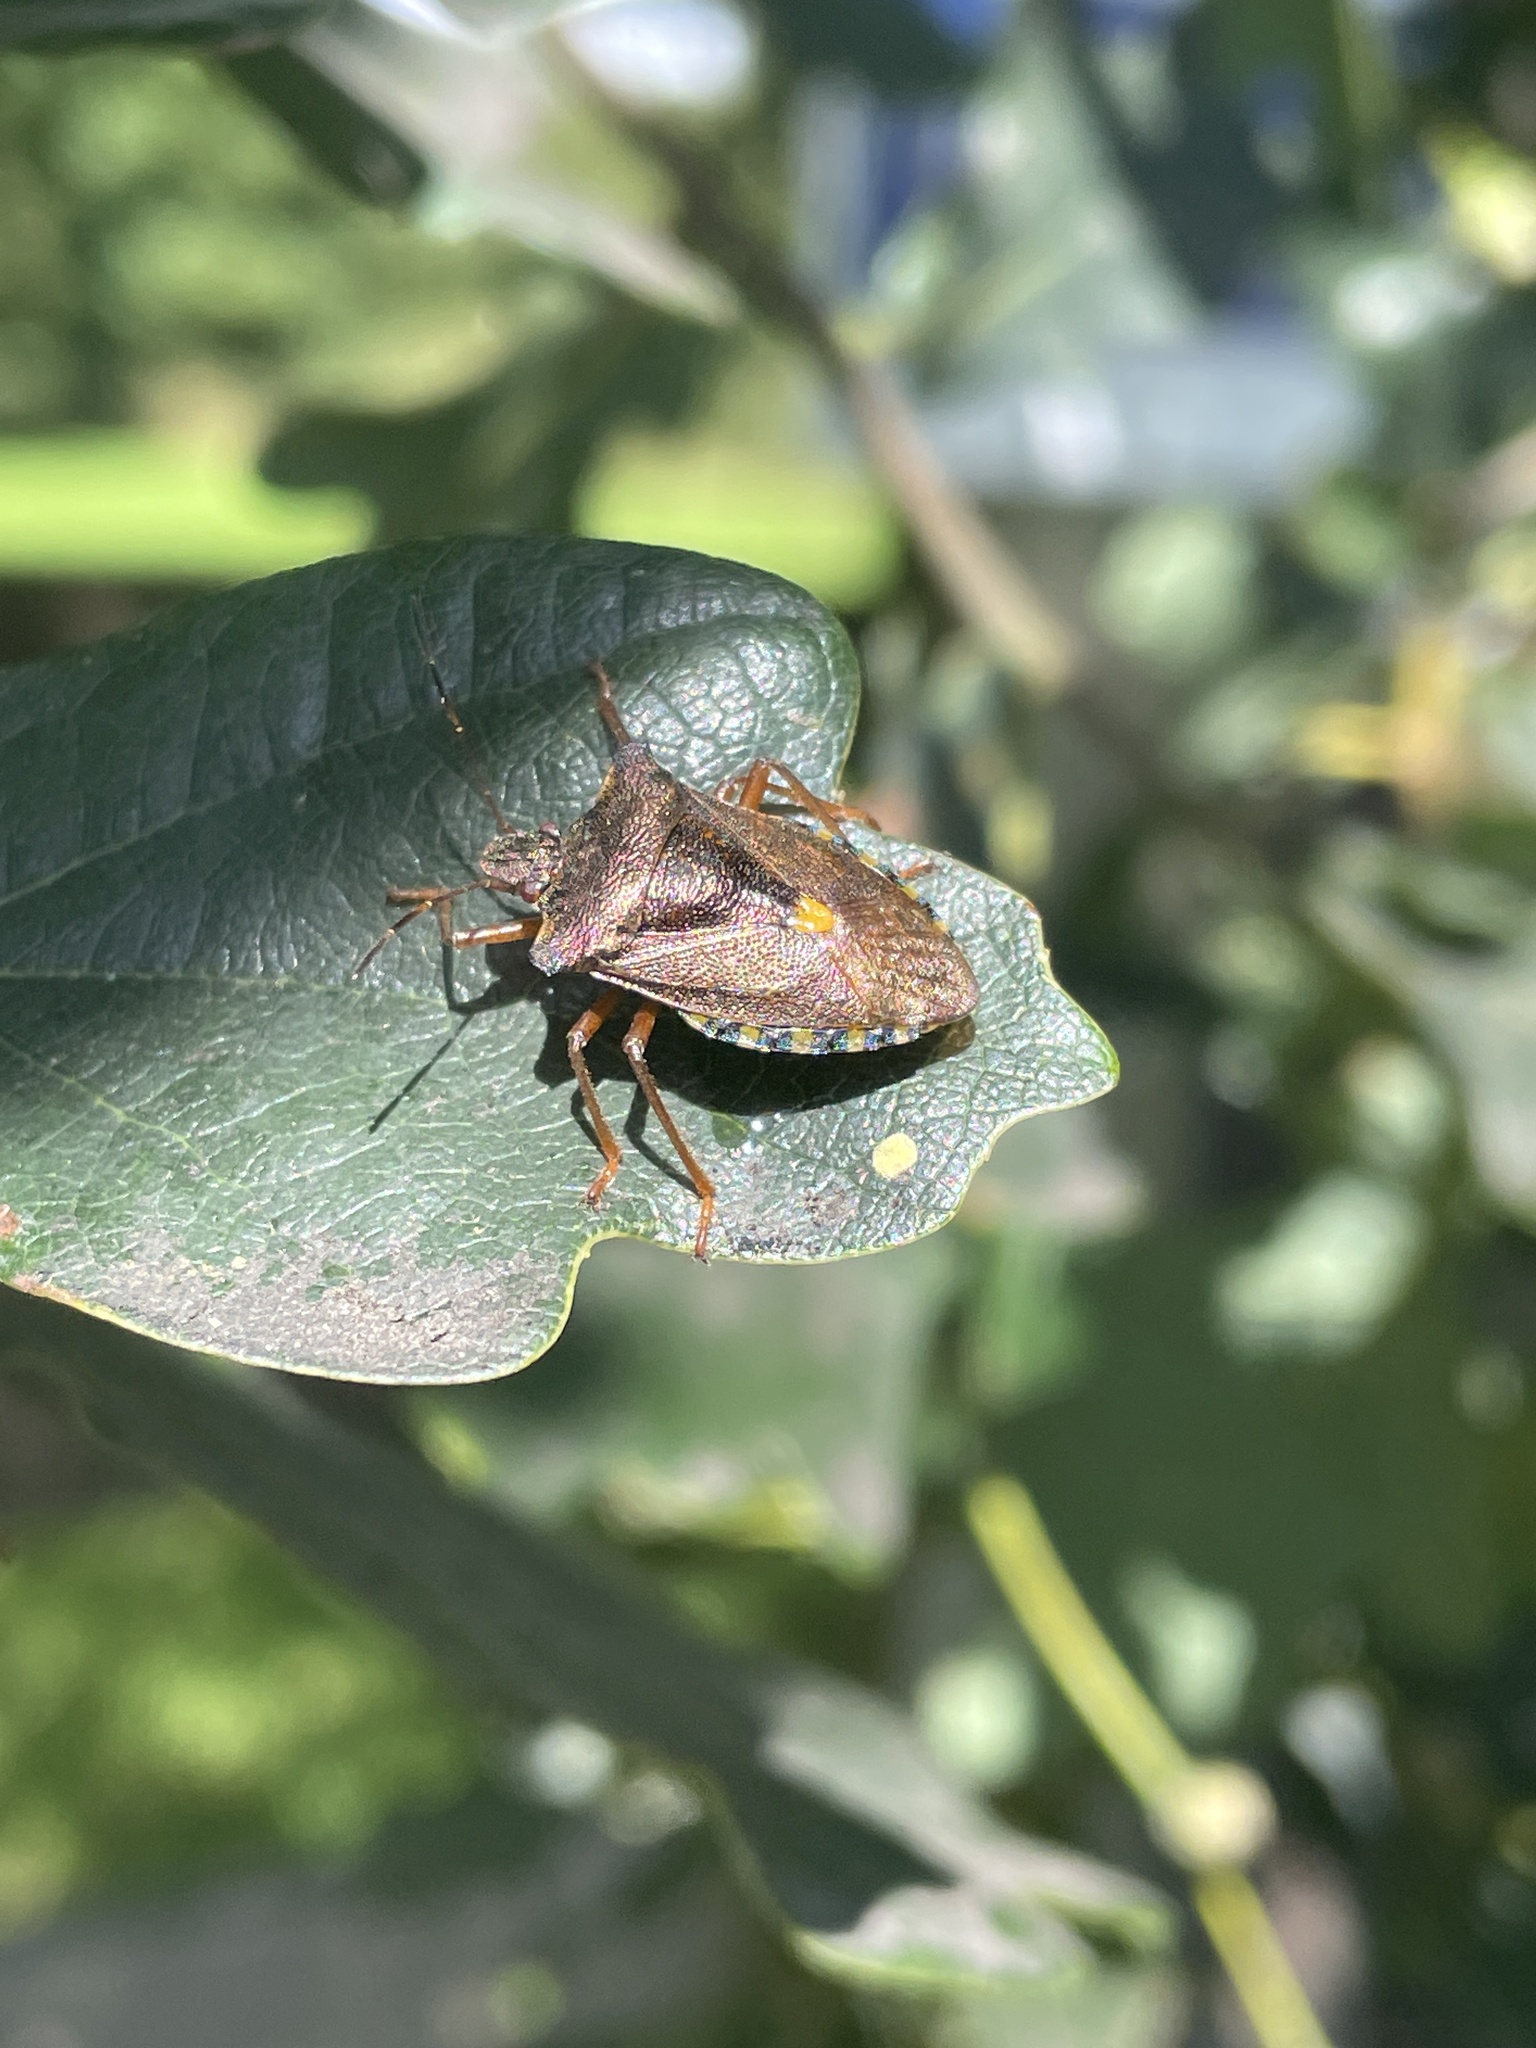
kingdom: Animalia
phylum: Arthropoda
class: Insecta
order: Hemiptera
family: Pentatomidae
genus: Pentatoma
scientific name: Pentatoma rufipes
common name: Forest bug
